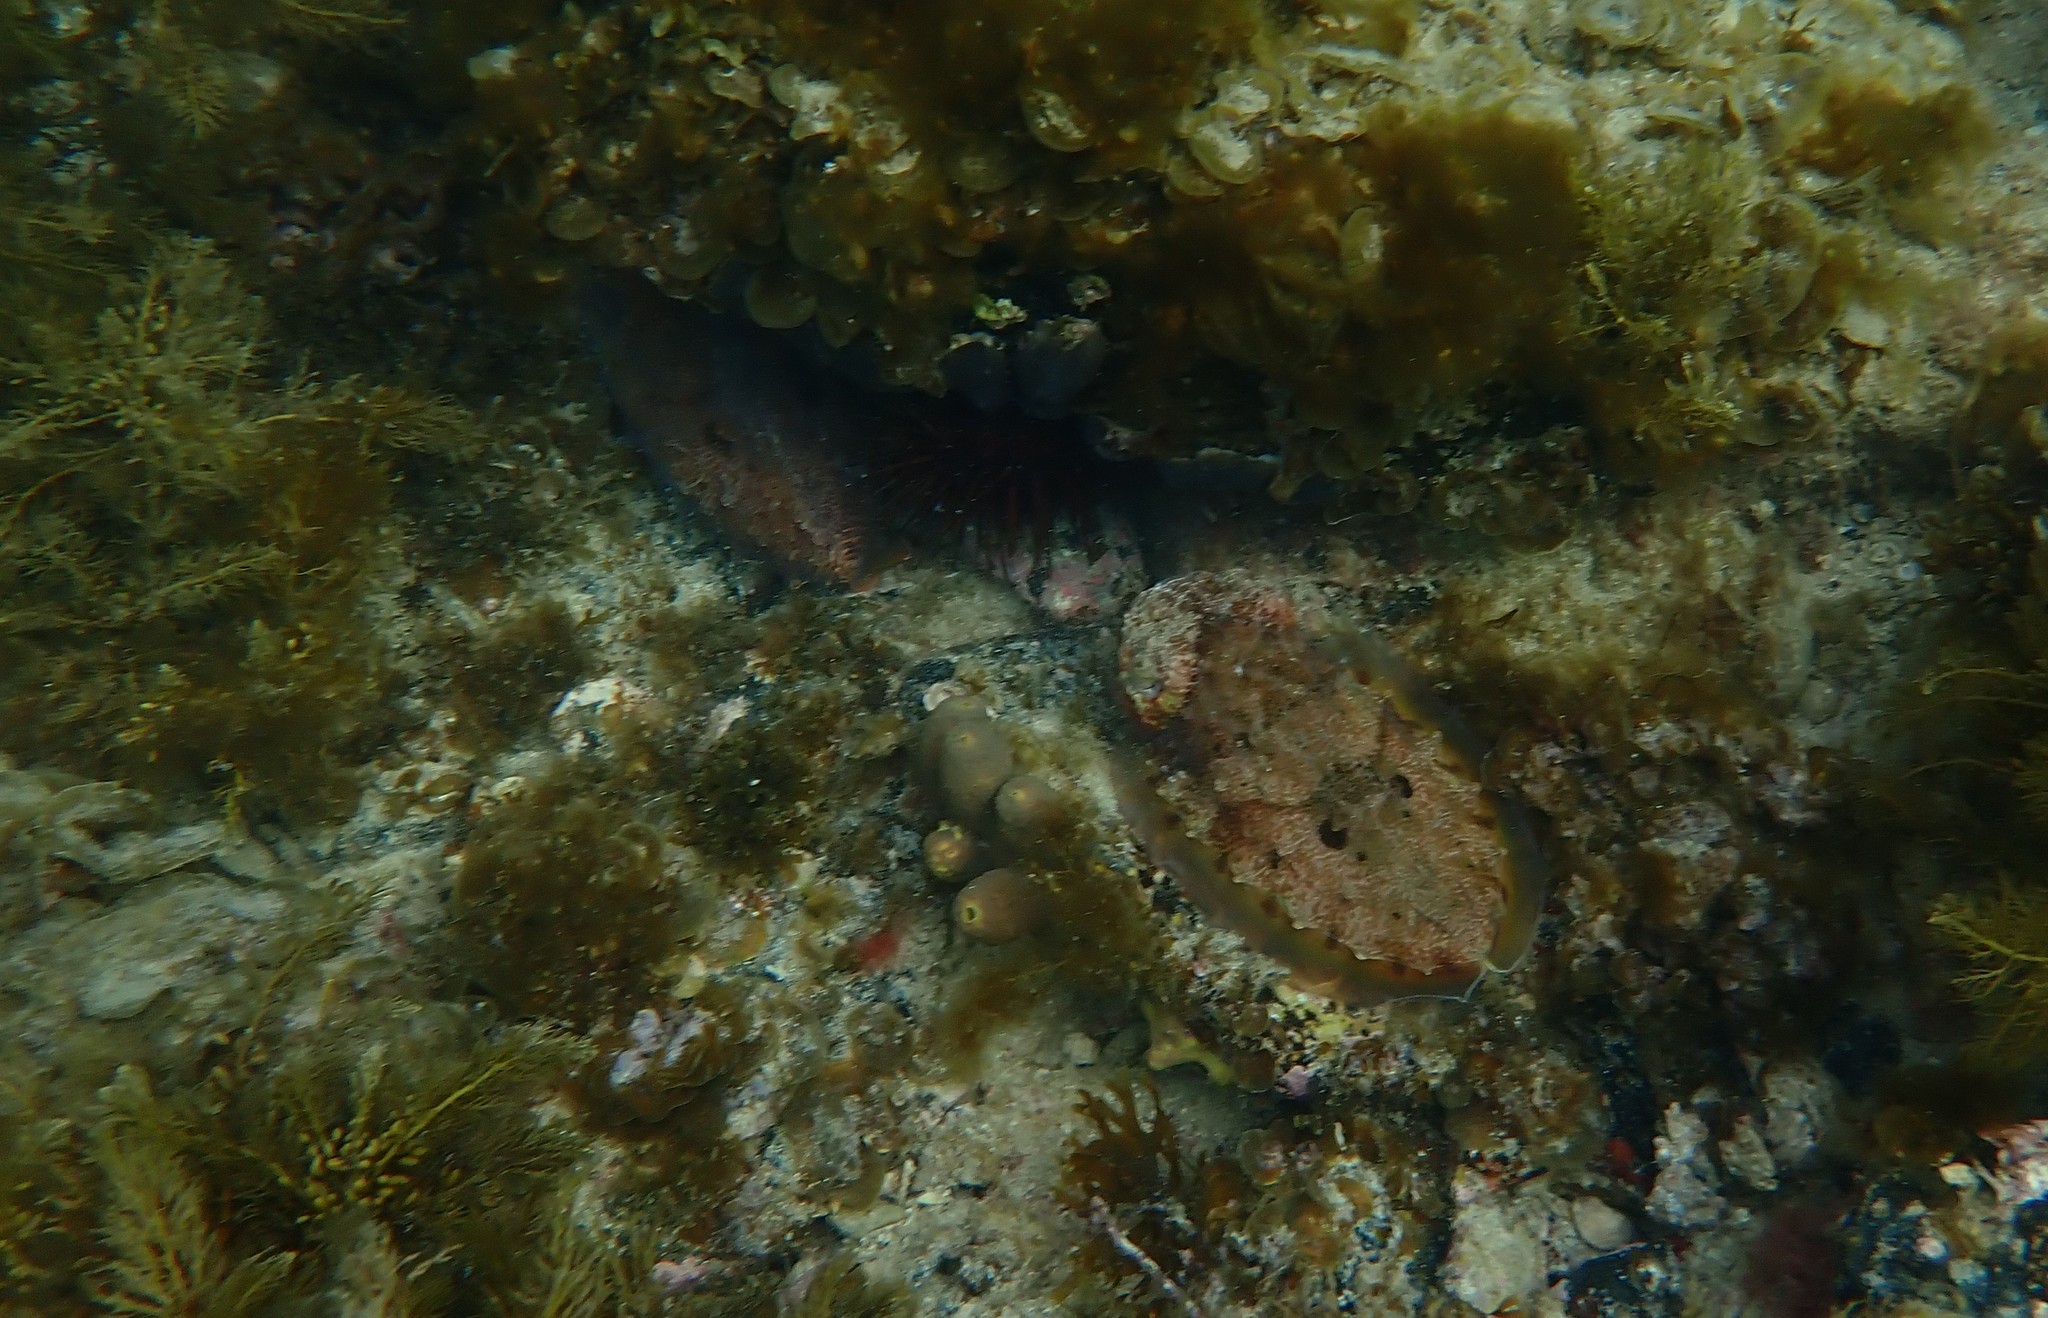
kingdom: Animalia
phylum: Mollusca
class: Cephalopoda
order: Sepiida
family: Sepiidae
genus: Ascarosepion
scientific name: Ascarosepion apama
